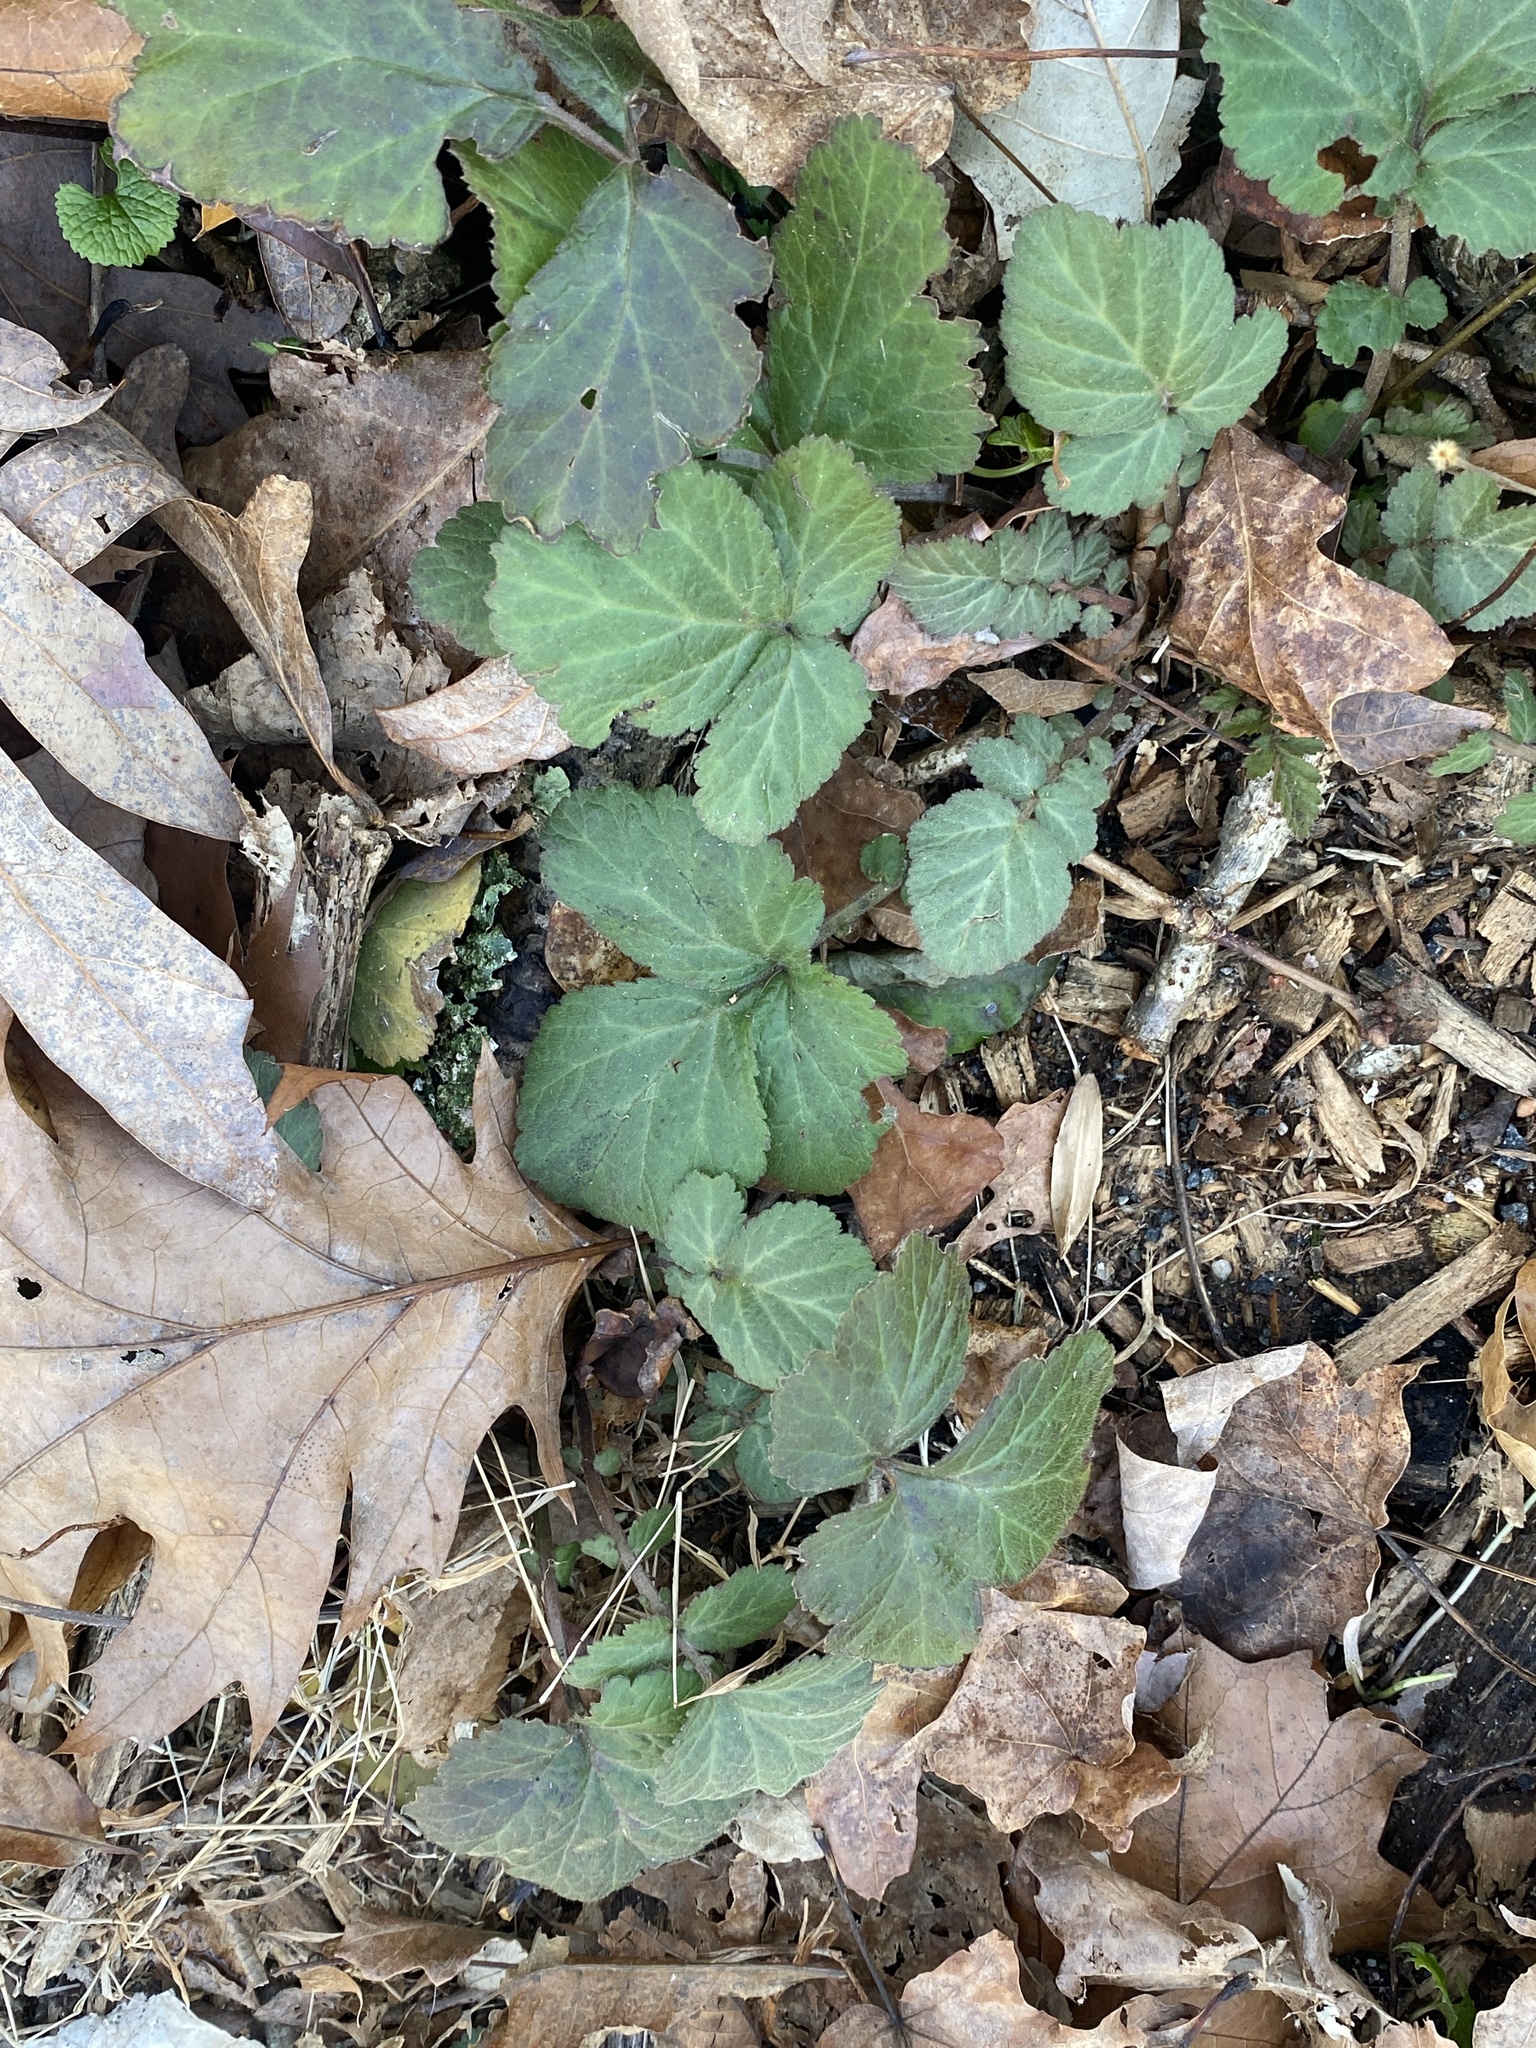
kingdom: Plantae
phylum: Tracheophyta
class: Magnoliopsida
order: Rosales
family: Rosaceae
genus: Geum
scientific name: Geum canadense
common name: White avens
